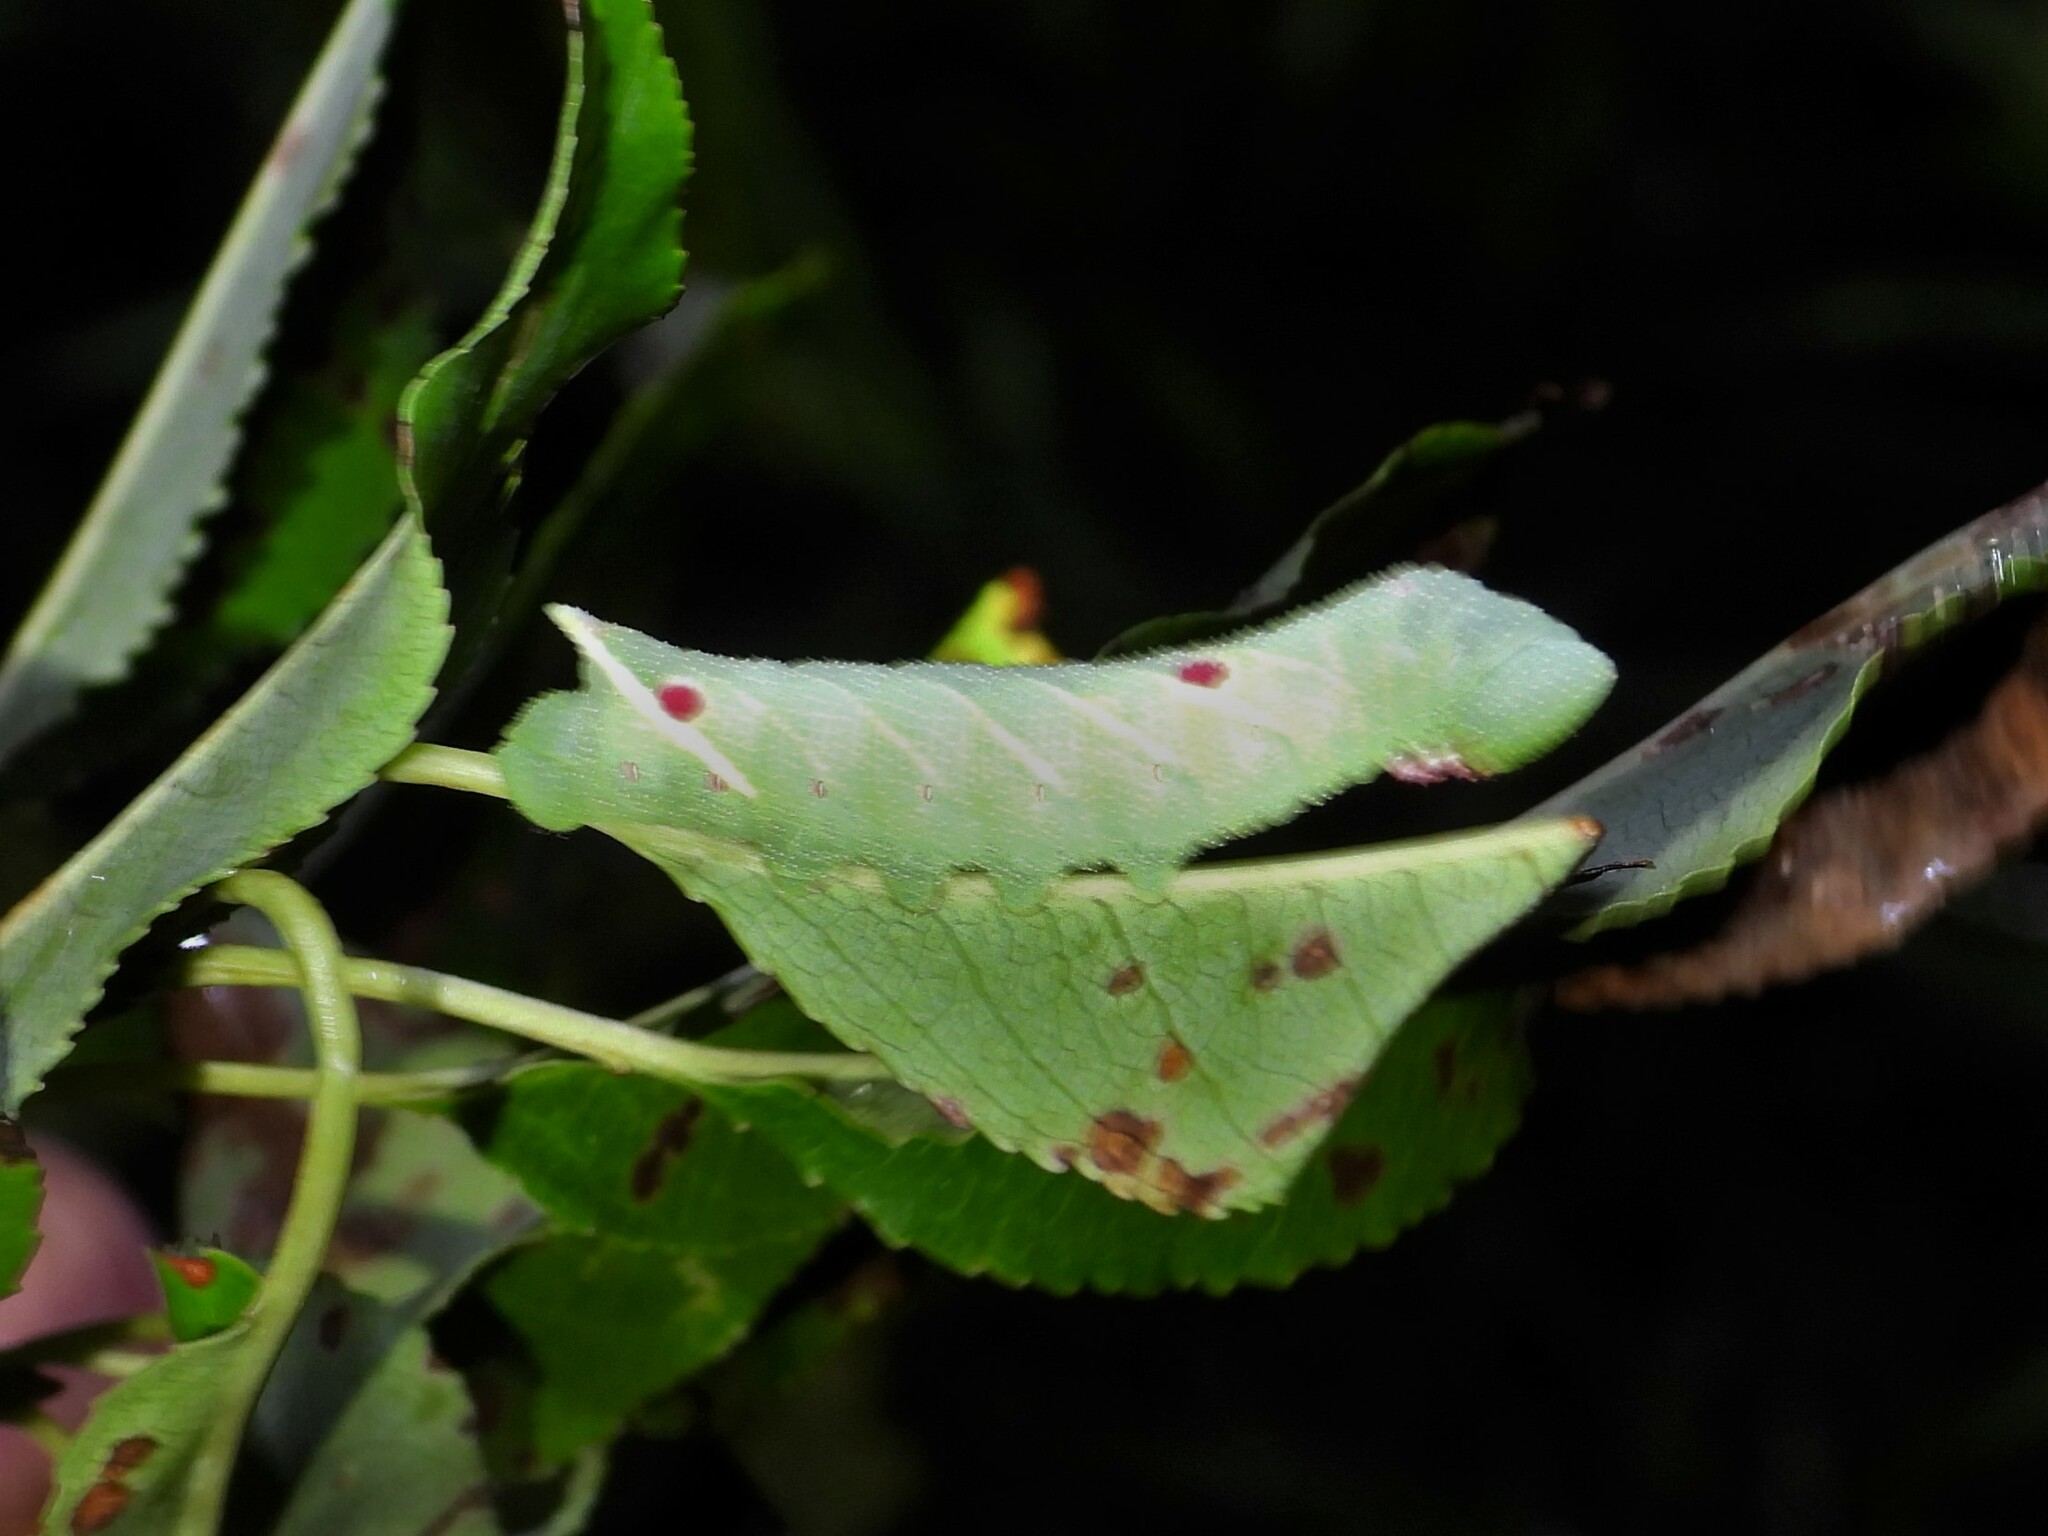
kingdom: Animalia
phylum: Arthropoda
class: Insecta
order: Lepidoptera
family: Sphingidae
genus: Paonias
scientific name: Paonias myops
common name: Small-eyed sphinx
